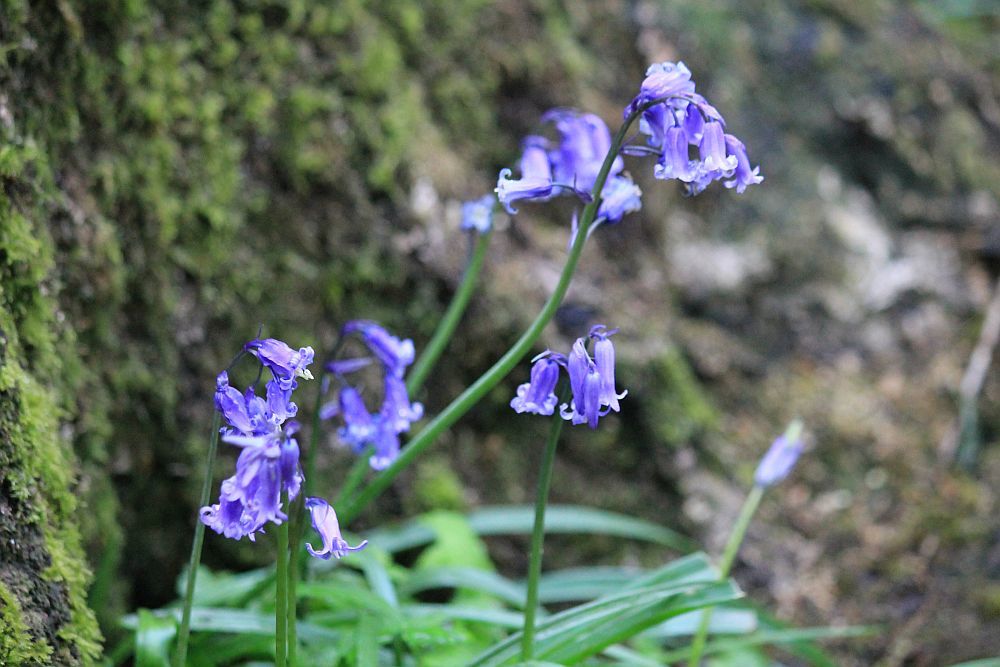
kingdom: Plantae
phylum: Tracheophyta
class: Liliopsida
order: Asparagales
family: Asparagaceae
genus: Hyacinthoides
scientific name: Hyacinthoides non-scripta
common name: Bluebell
